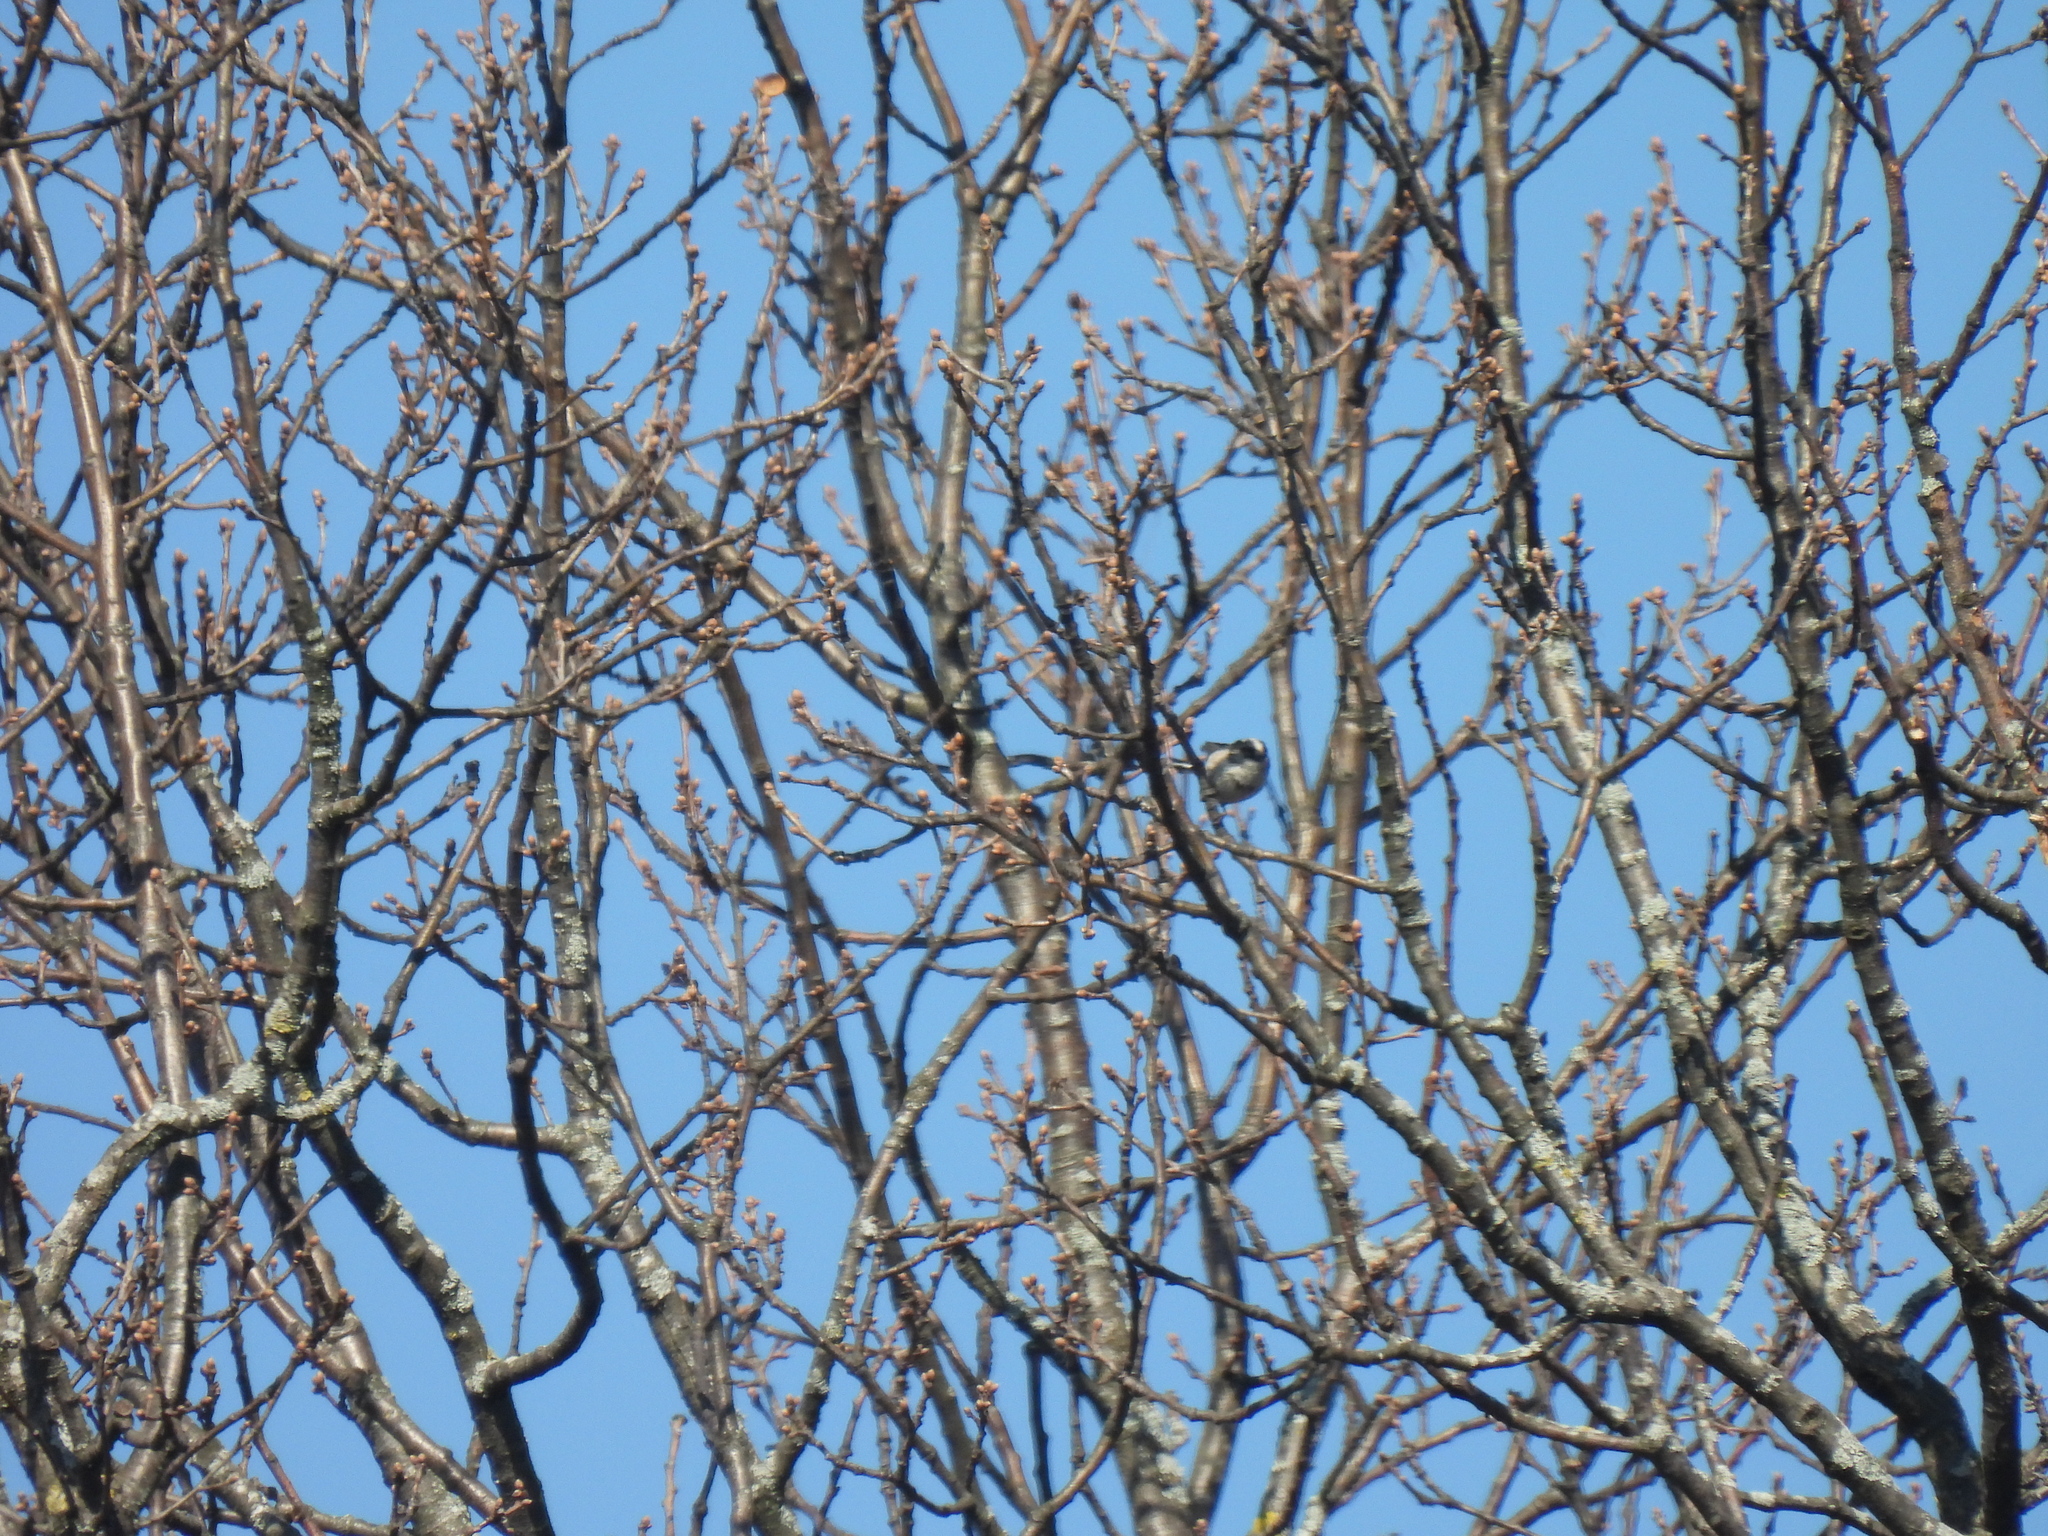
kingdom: Animalia
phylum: Chordata
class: Aves
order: Passeriformes
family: Aegithalidae
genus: Aegithalos
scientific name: Aegithalos caudatus
